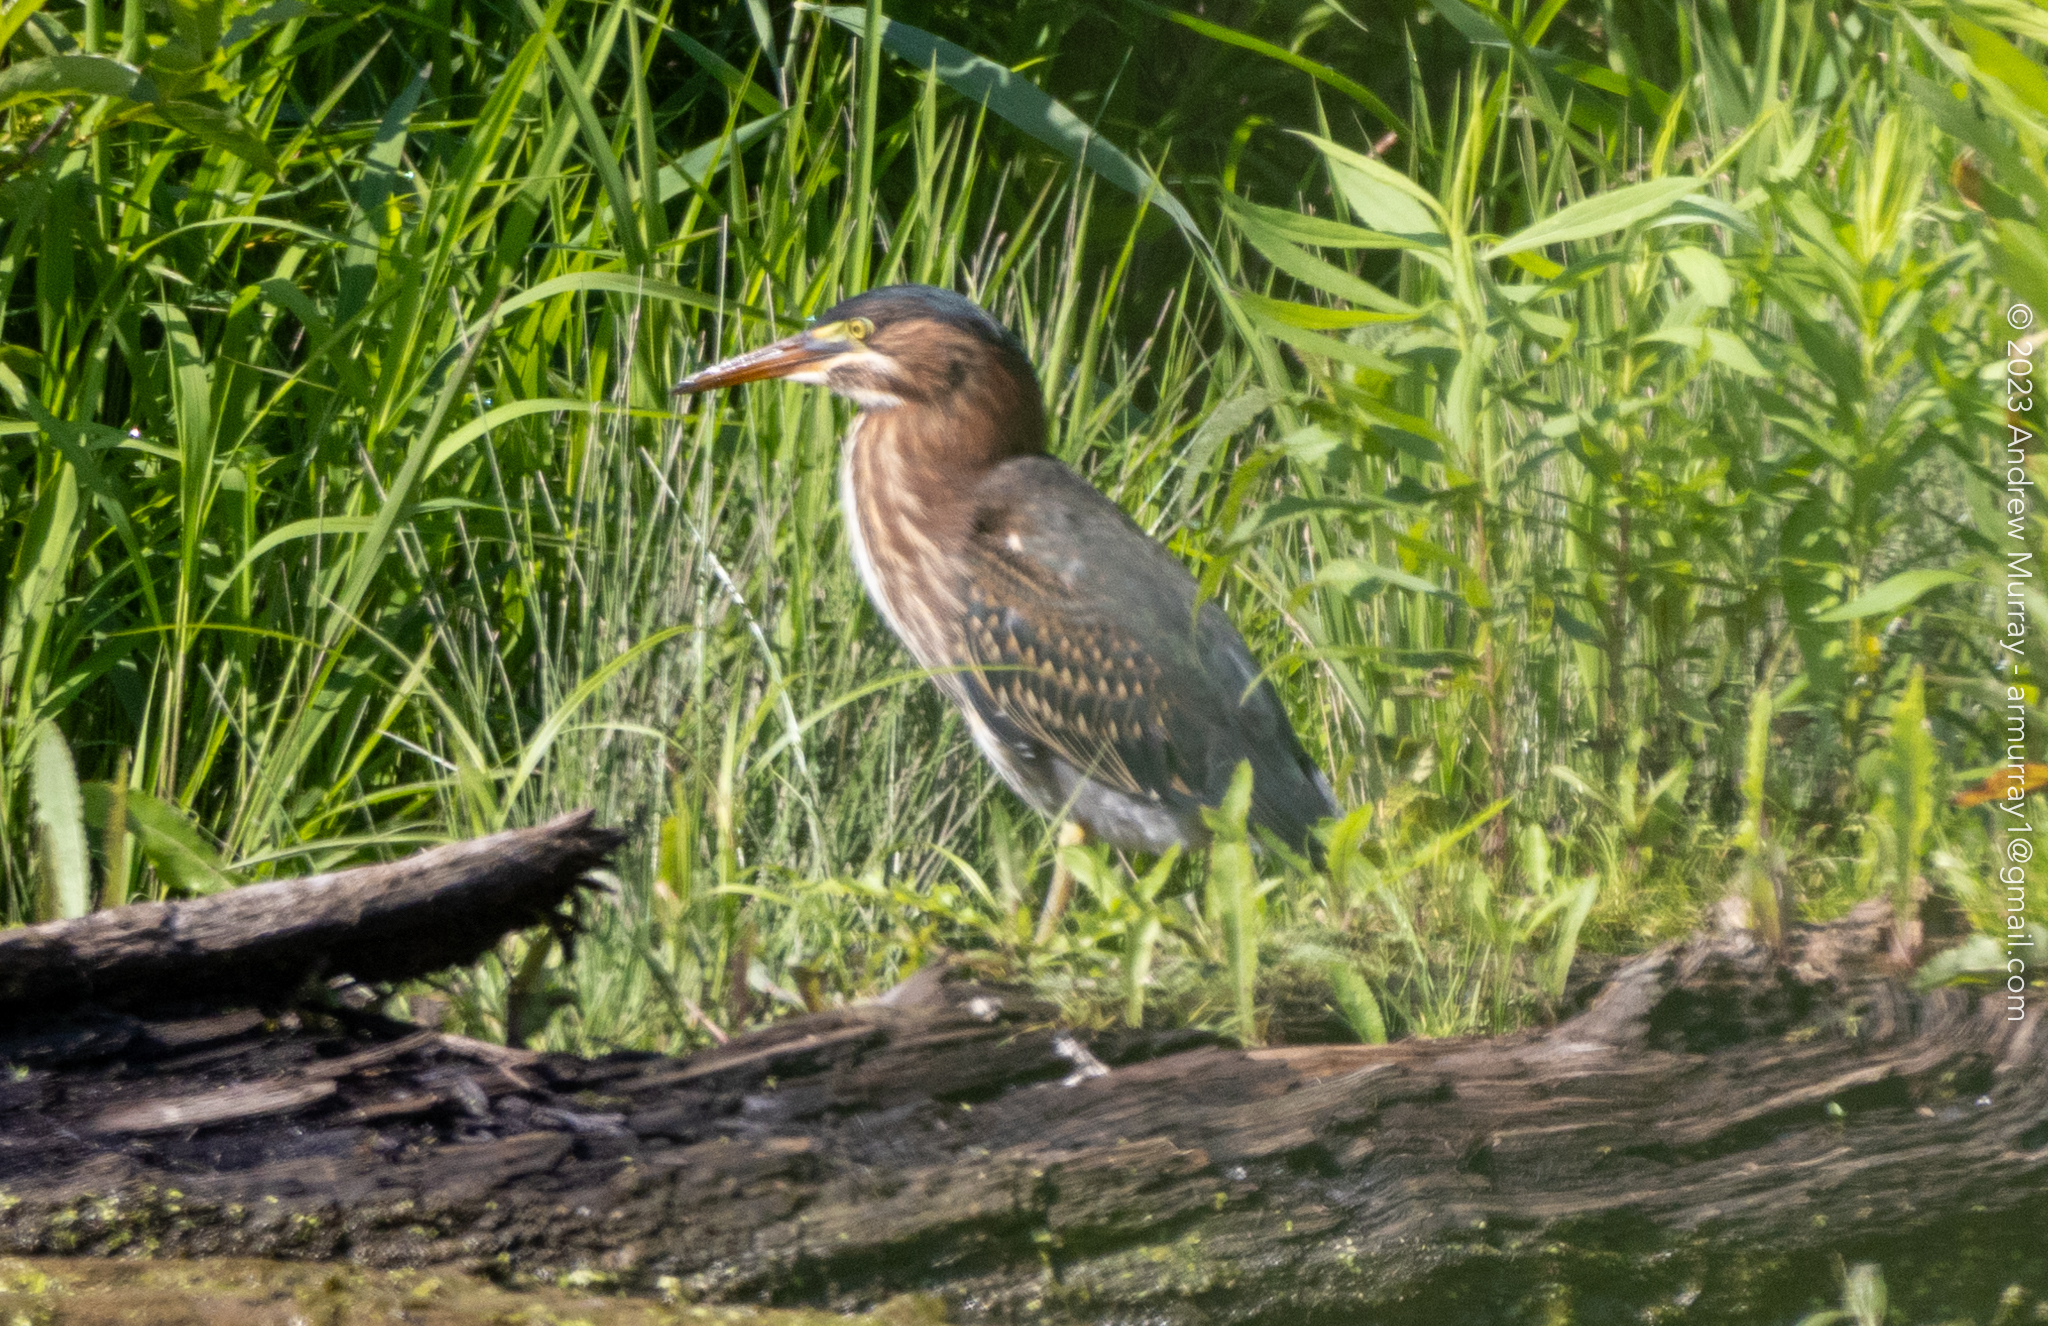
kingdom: Animalia
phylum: Chordata
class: Aves
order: Pelecaniformes
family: Ardeidae
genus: Butorides
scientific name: Butorides virescens
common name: Green heron
